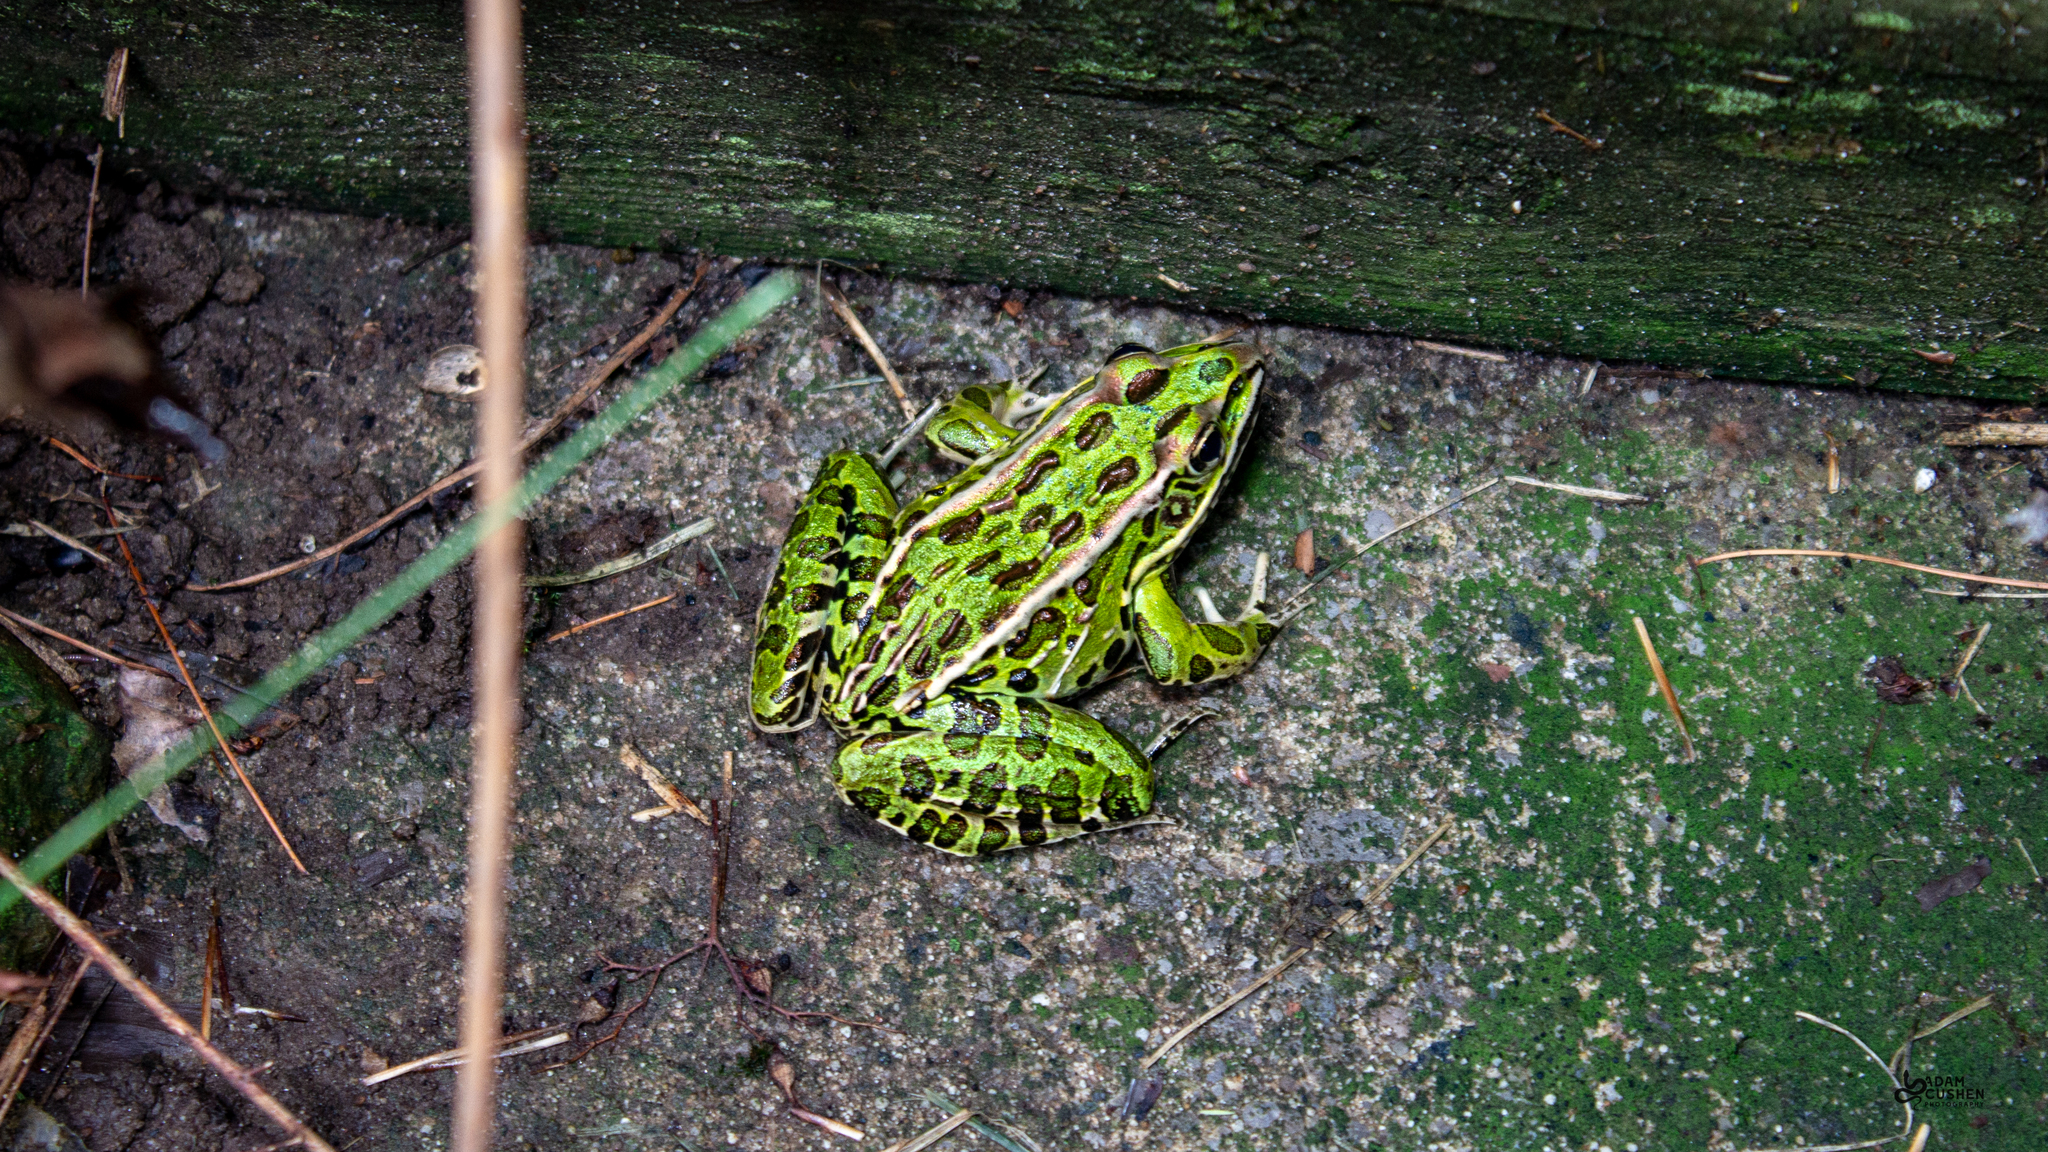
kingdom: Animalia
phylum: Chordata
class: Amphibia
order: Anura
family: Ranidae
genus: Lithobates
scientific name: Lithobates pipiens
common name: Northern leopard frog
